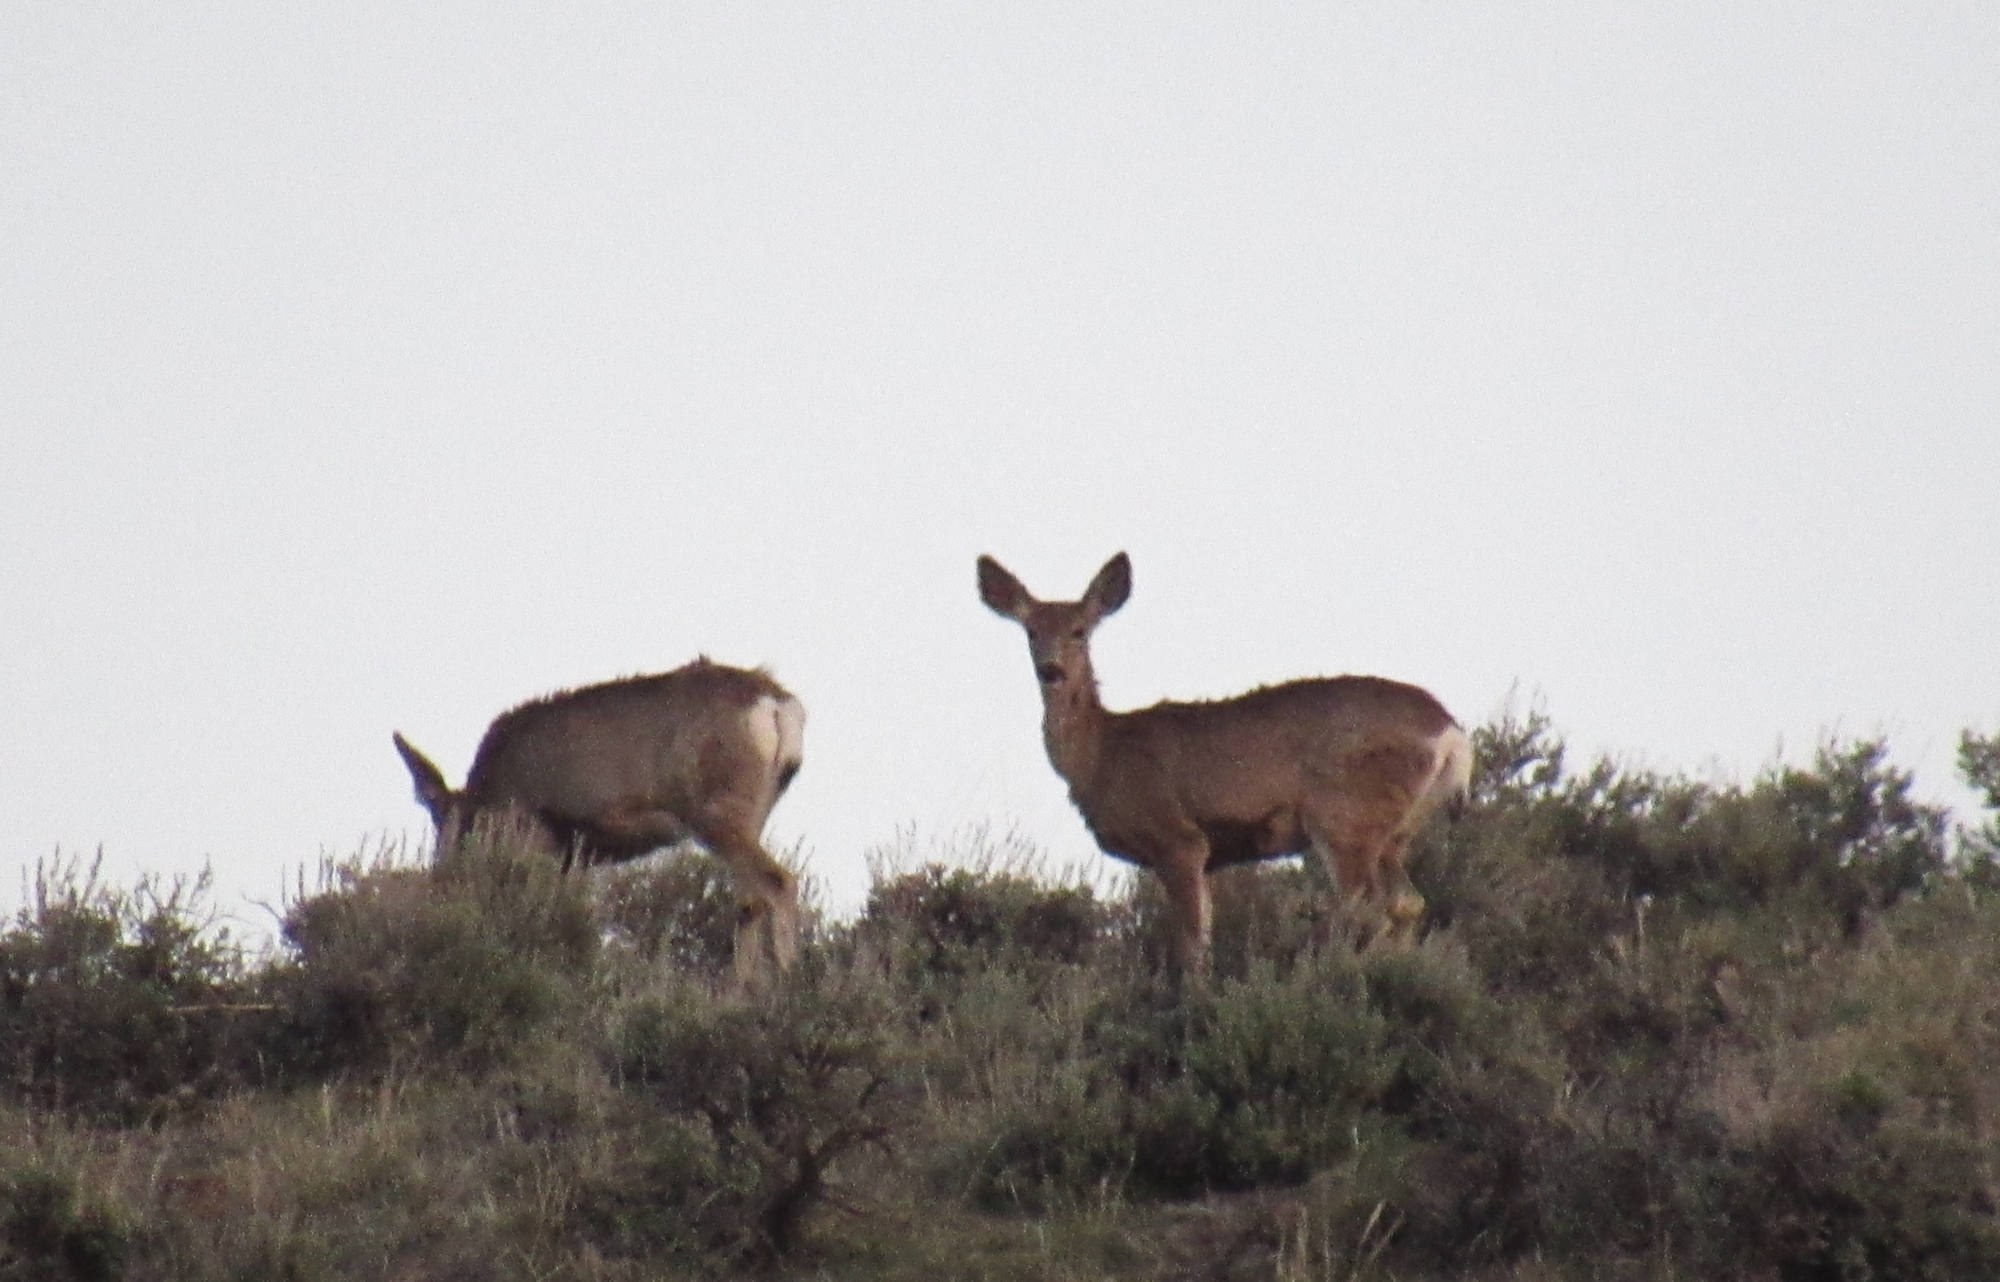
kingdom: Animalia
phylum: Chordata
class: Mammalia
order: Artiodactyla
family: Cervidae
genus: Odocoileus
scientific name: Odocoileus hemionus
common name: Mule deer
